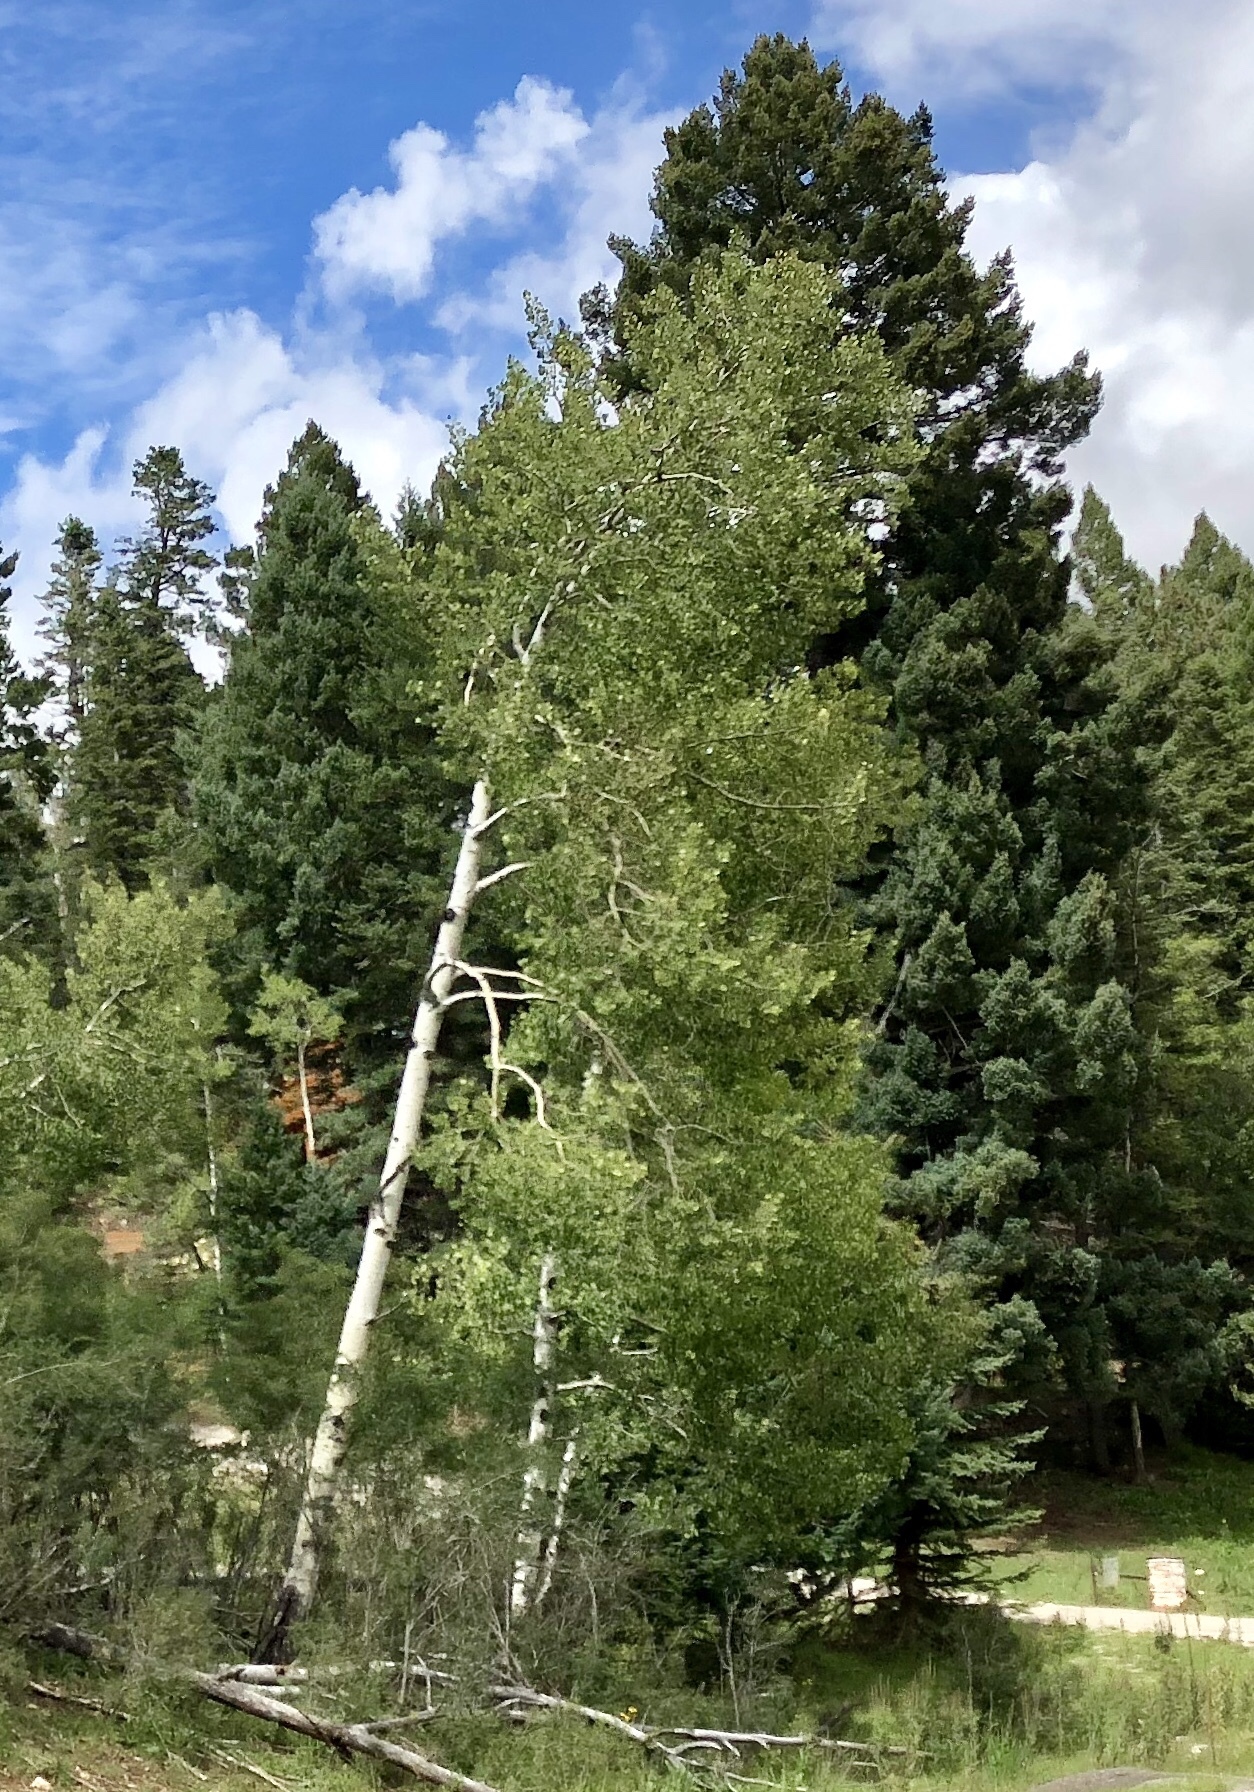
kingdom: Plantae
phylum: Tracheophyta
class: Magnoliopsida
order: Malpighiales
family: Salicaceae
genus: Populus
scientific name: Populus tremuloides
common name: Quaking aspen
